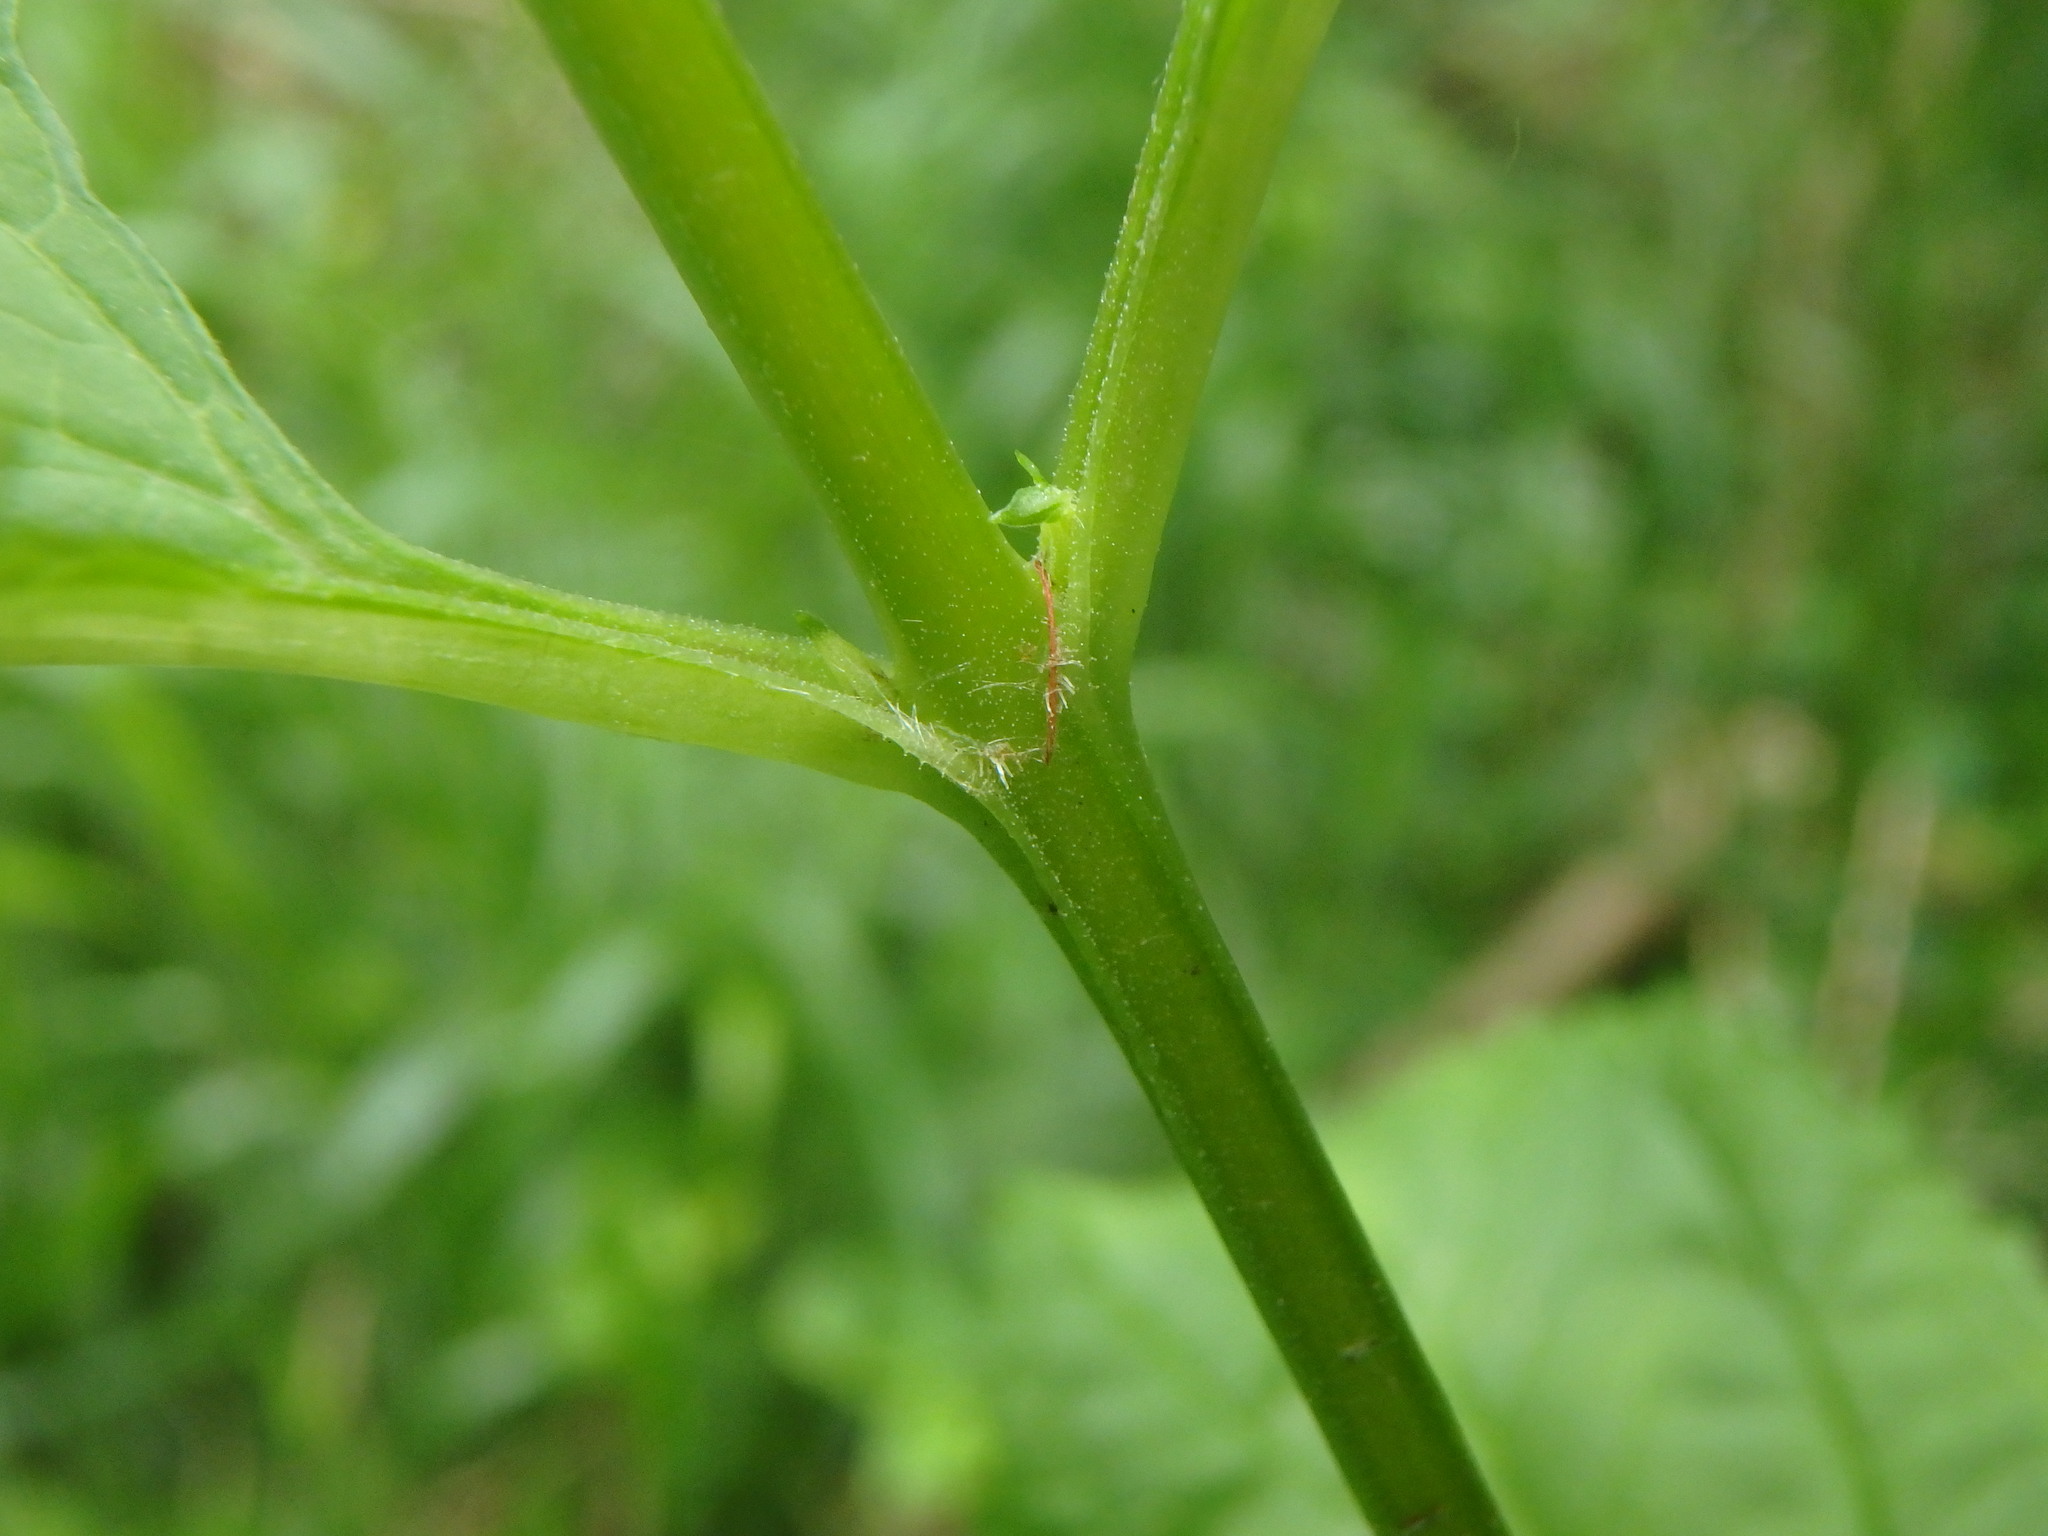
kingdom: Plantae
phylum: Tracheophyta
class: Magnoliopsida
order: Lamiales
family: Scrophulariaceae
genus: Scrophularia
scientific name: Scrophularia nodosa
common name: Common figwort
